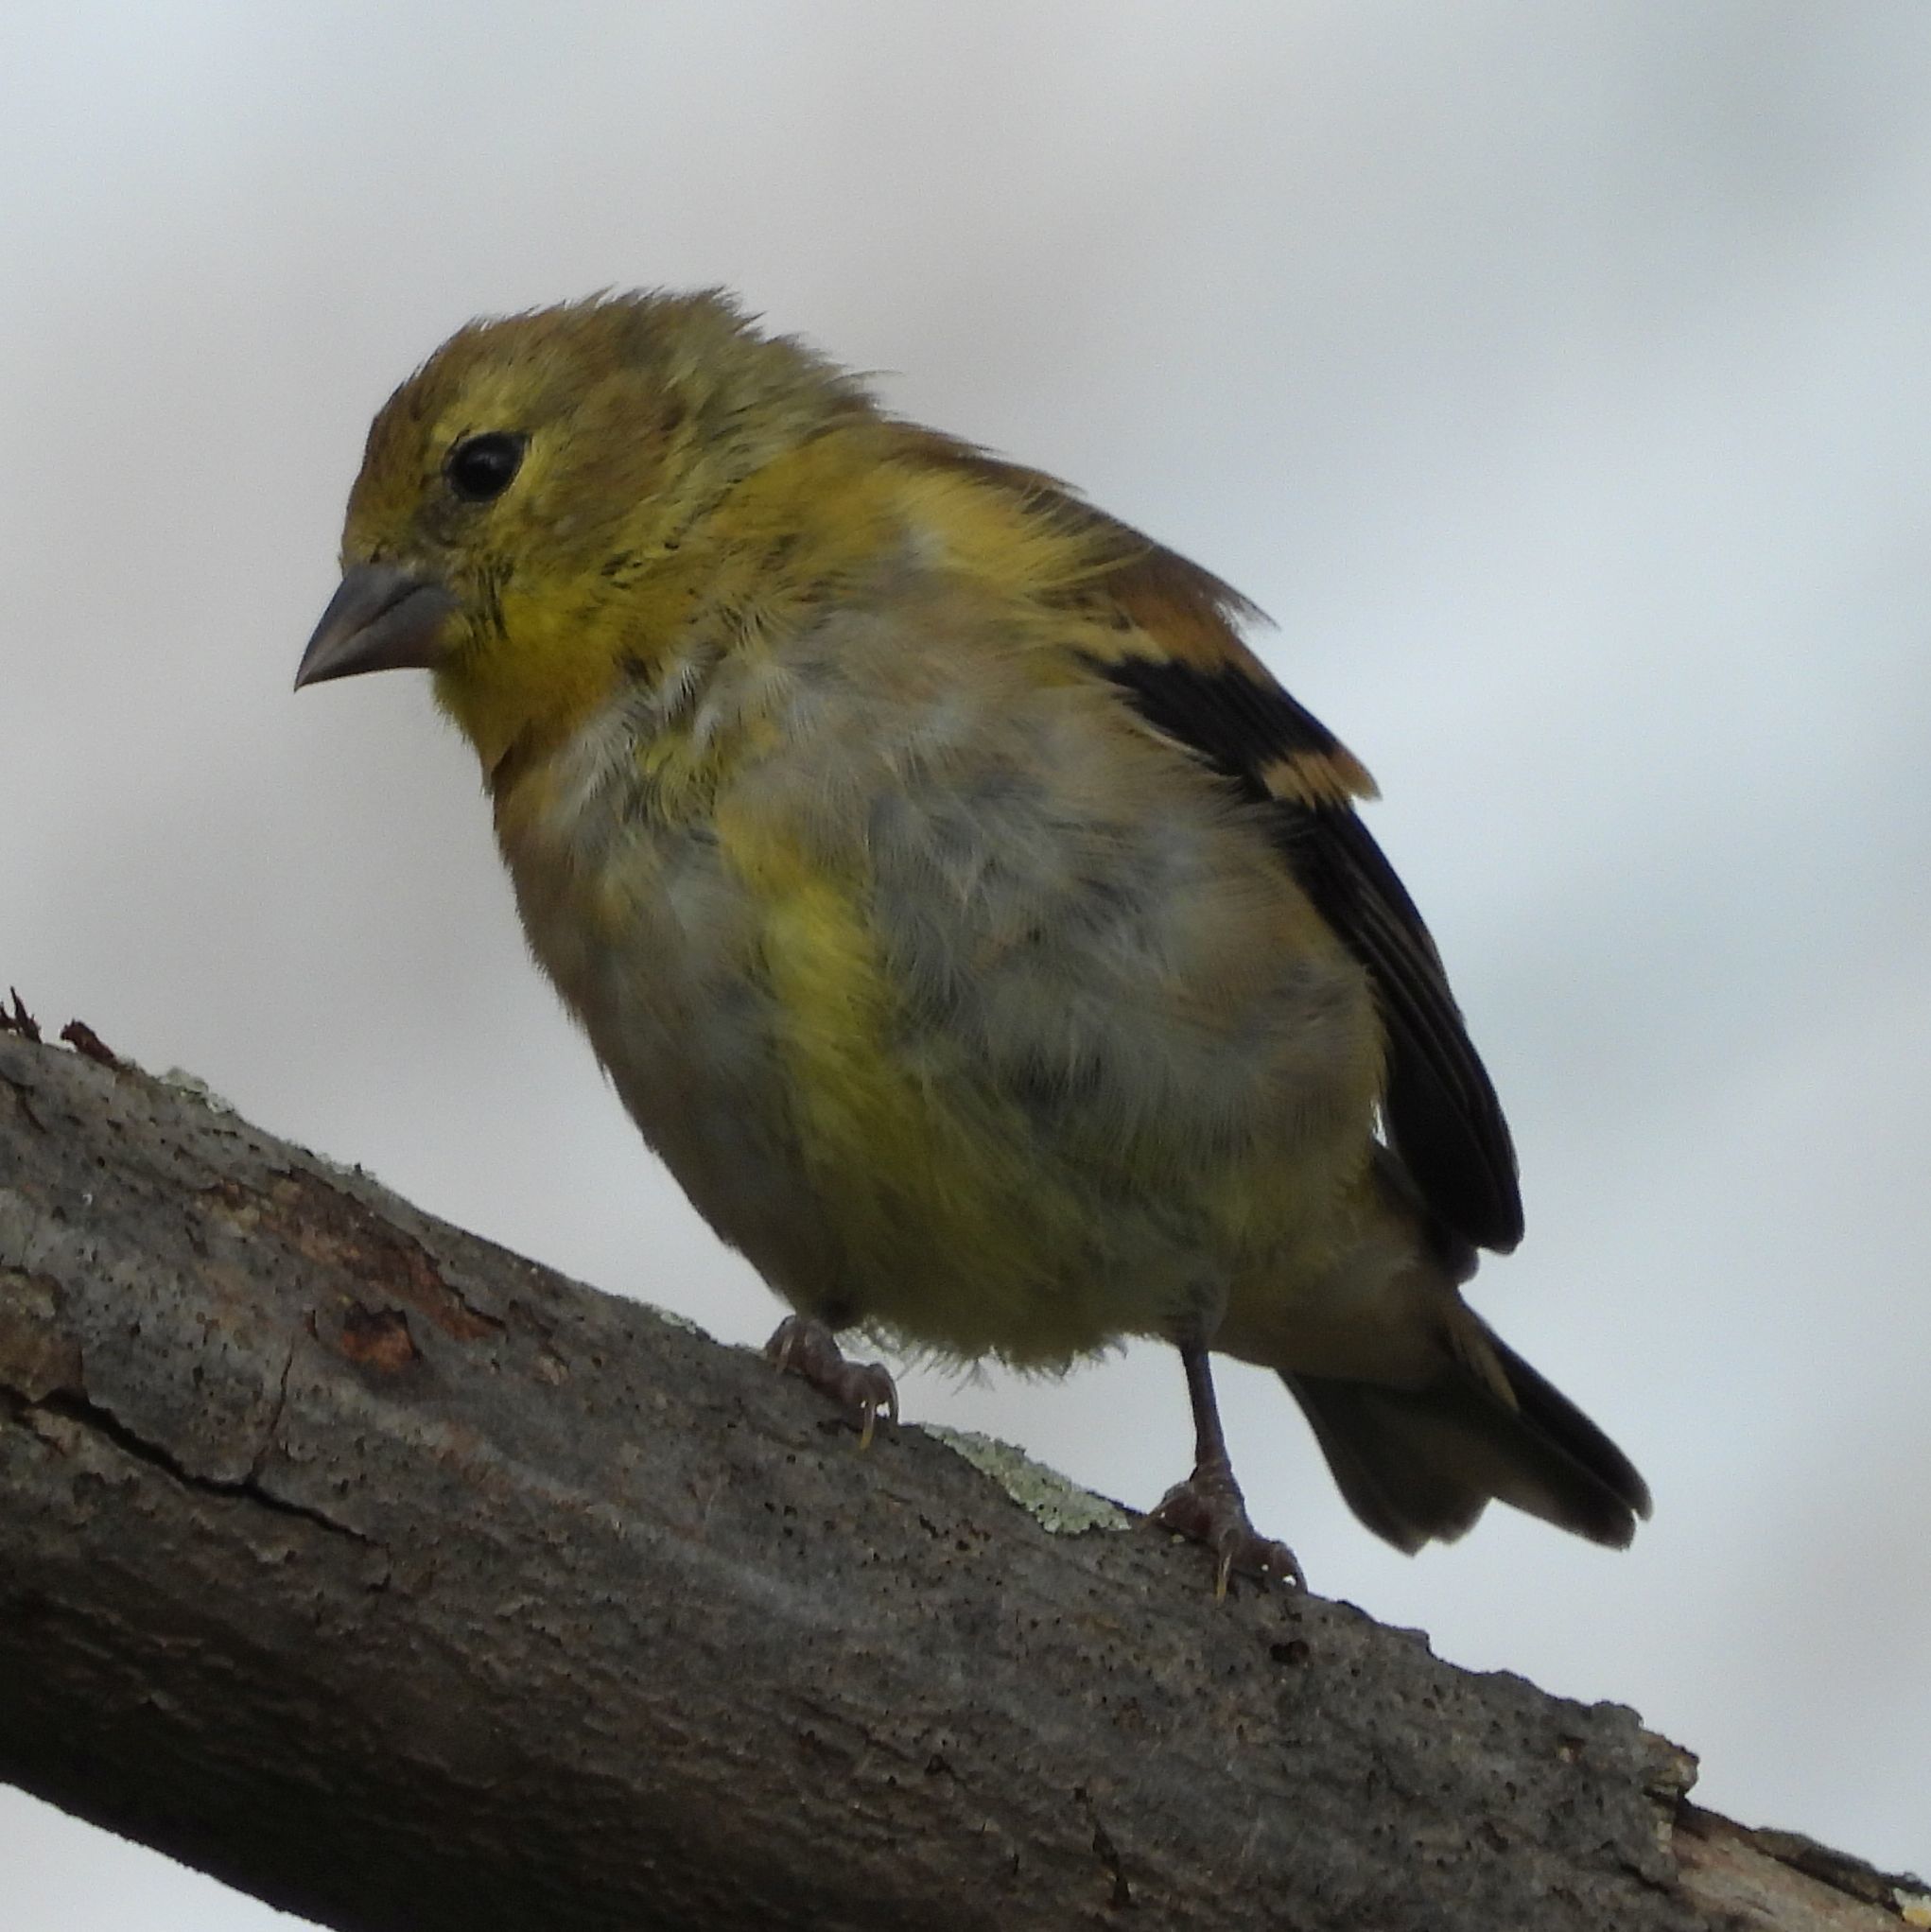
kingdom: Animalia
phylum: Chordata
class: Aves
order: Passeriformes
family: Fringillidae
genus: Spinus
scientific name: Spinus tristis
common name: American goldfinch
